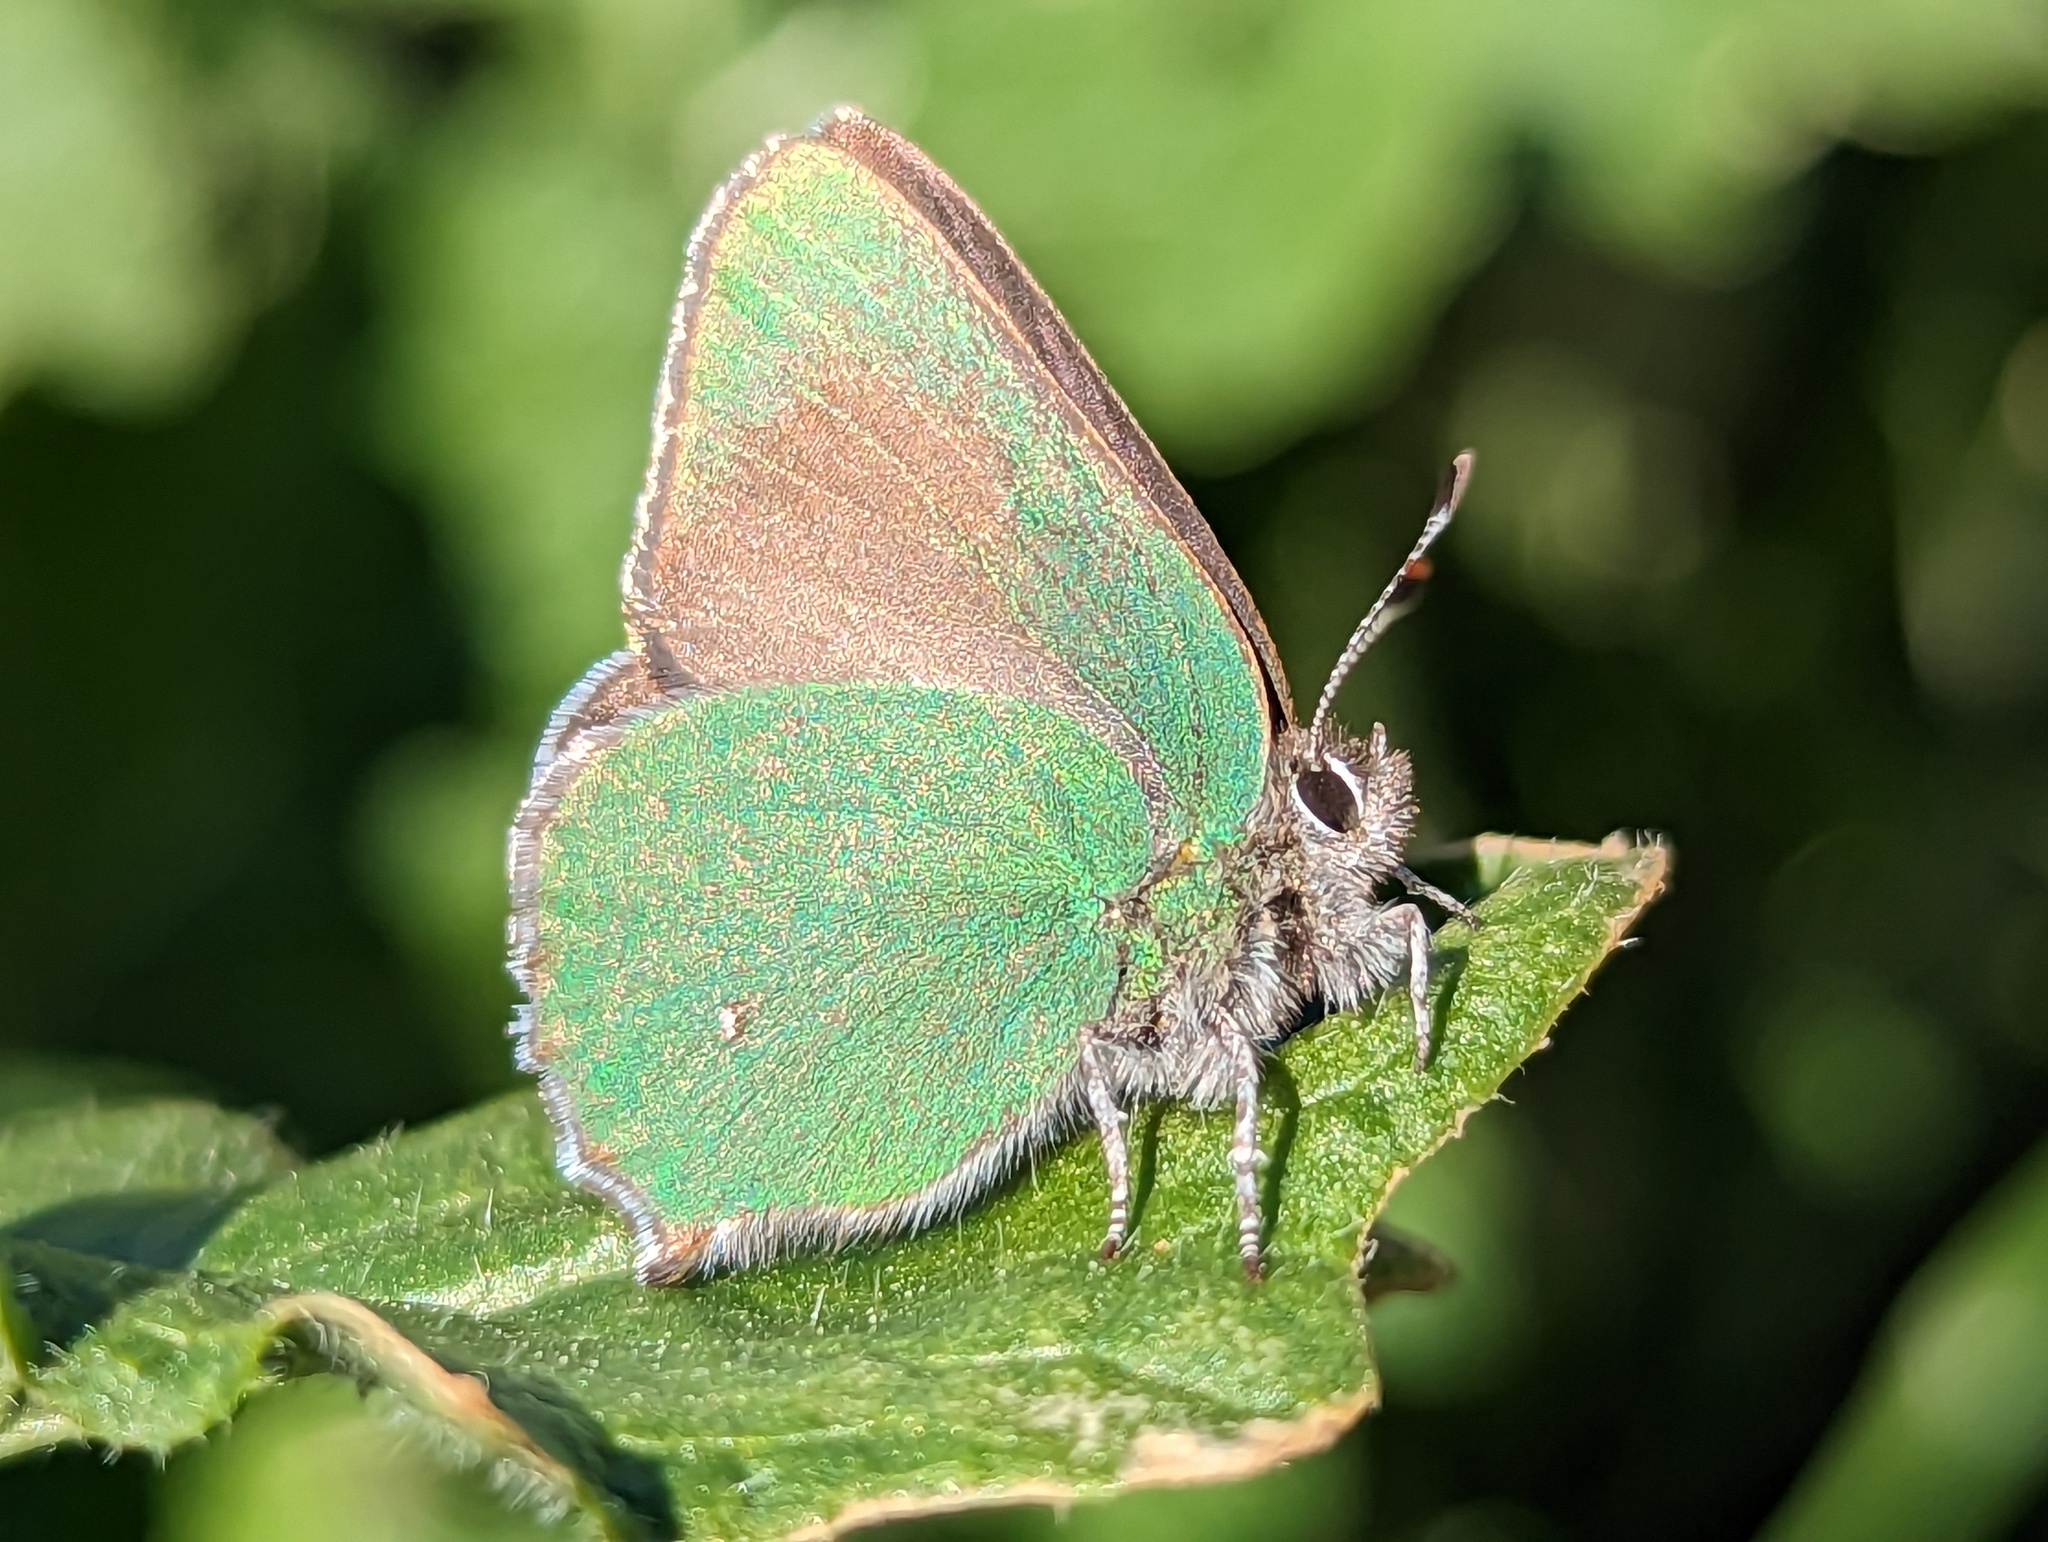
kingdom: Animalia
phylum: Arthropoda
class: Insecta
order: Lepidoptera
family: Lycaenidae
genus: Callophrys
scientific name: Callophrys dumetorum
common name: Bramble hairstreak
